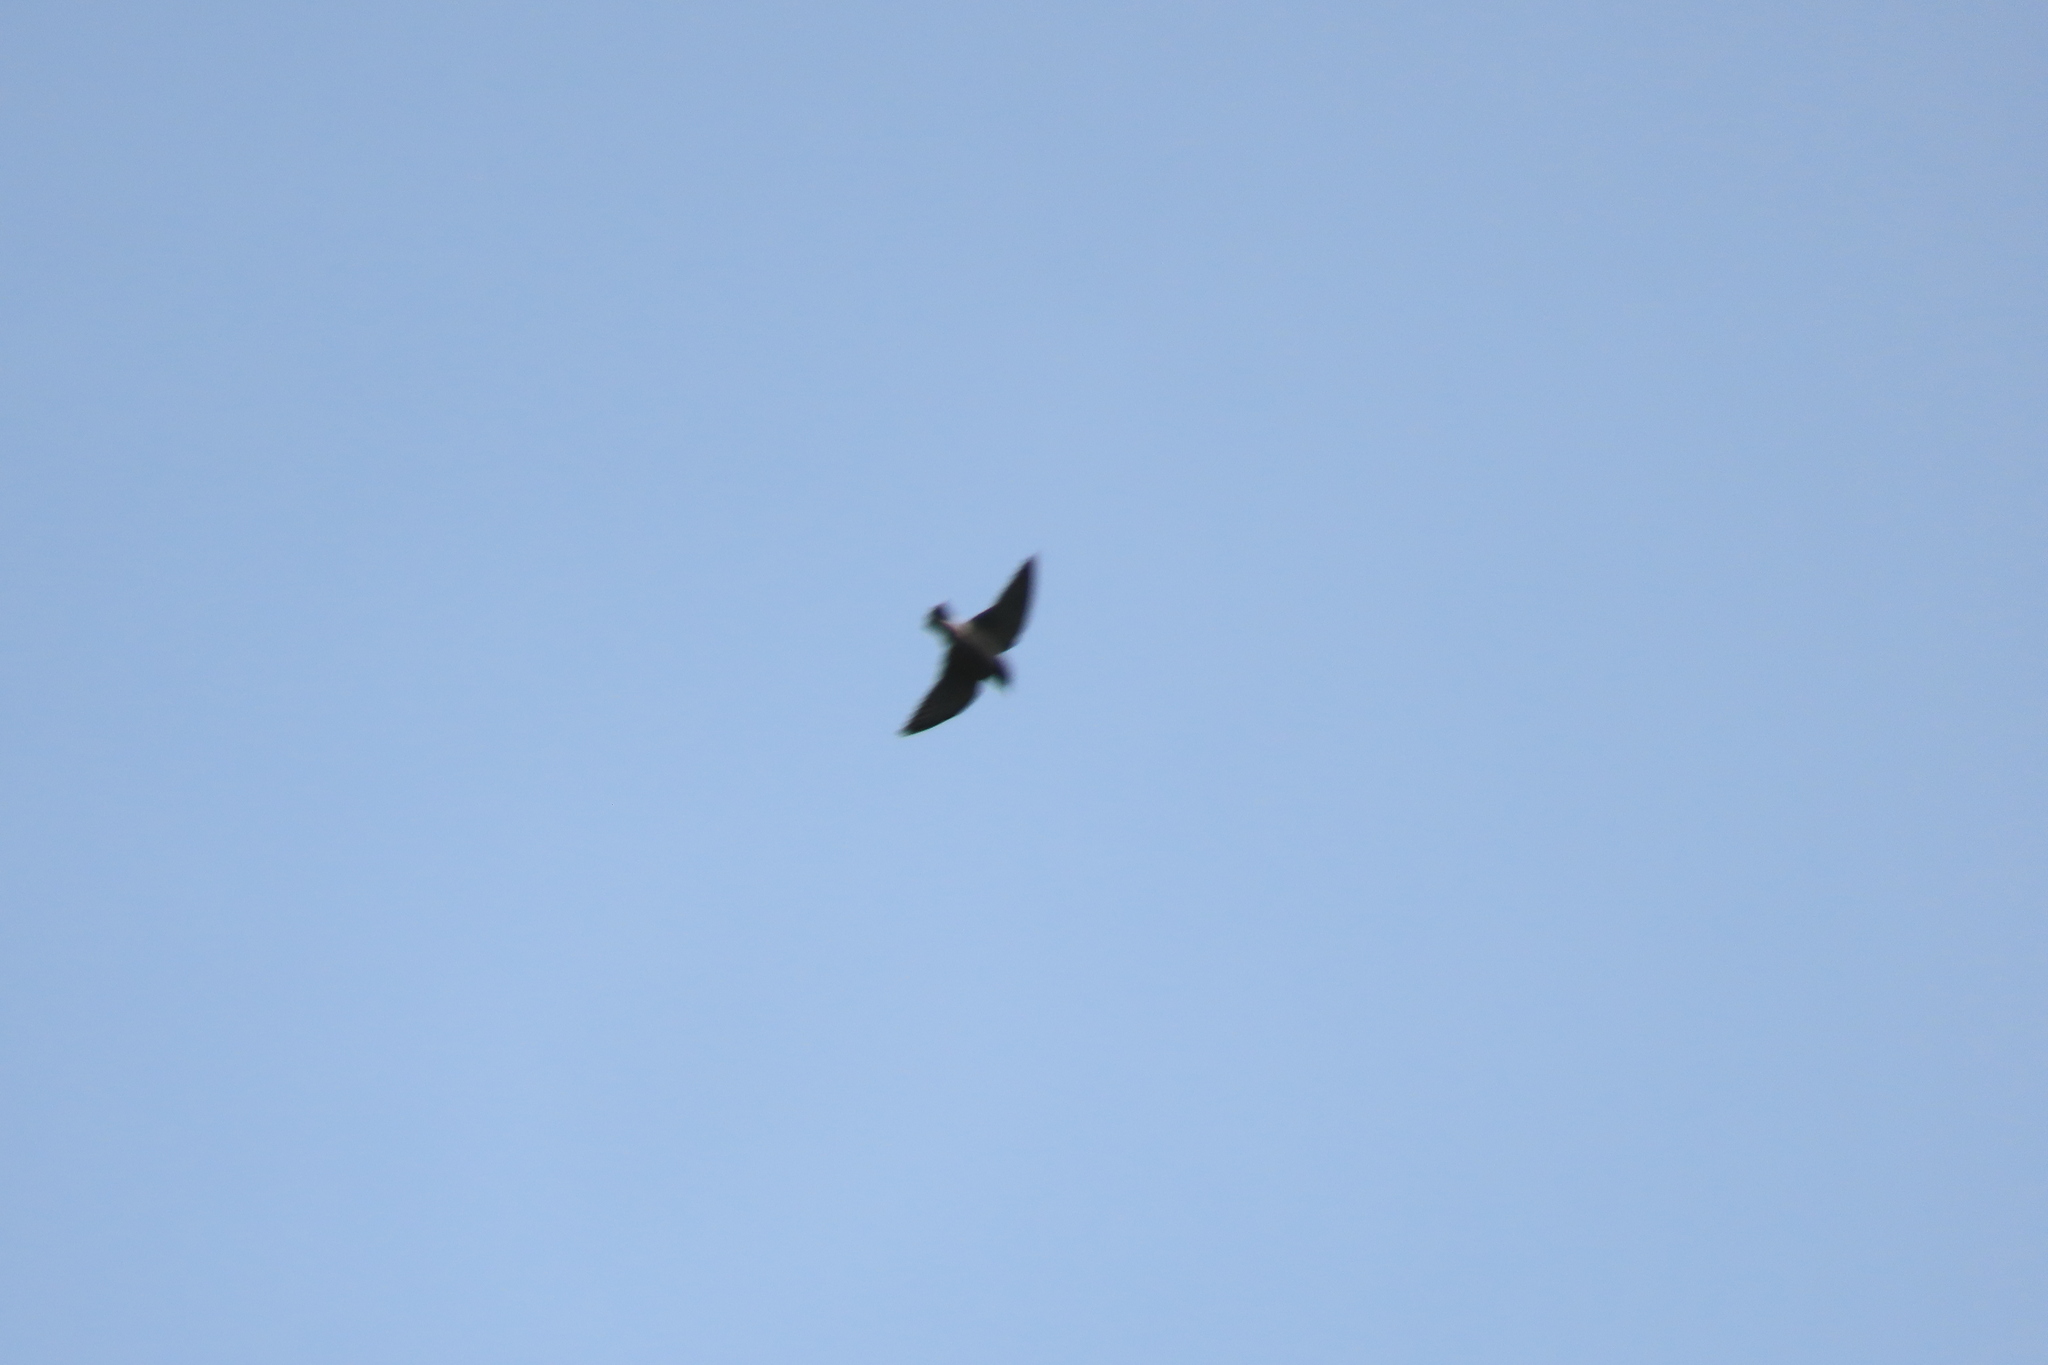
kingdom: Animalia
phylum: Chordata
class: Aves
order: Passeriformes
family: Artamidae
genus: Artamus
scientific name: Artamus fuscus
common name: Ashy woodswallow
